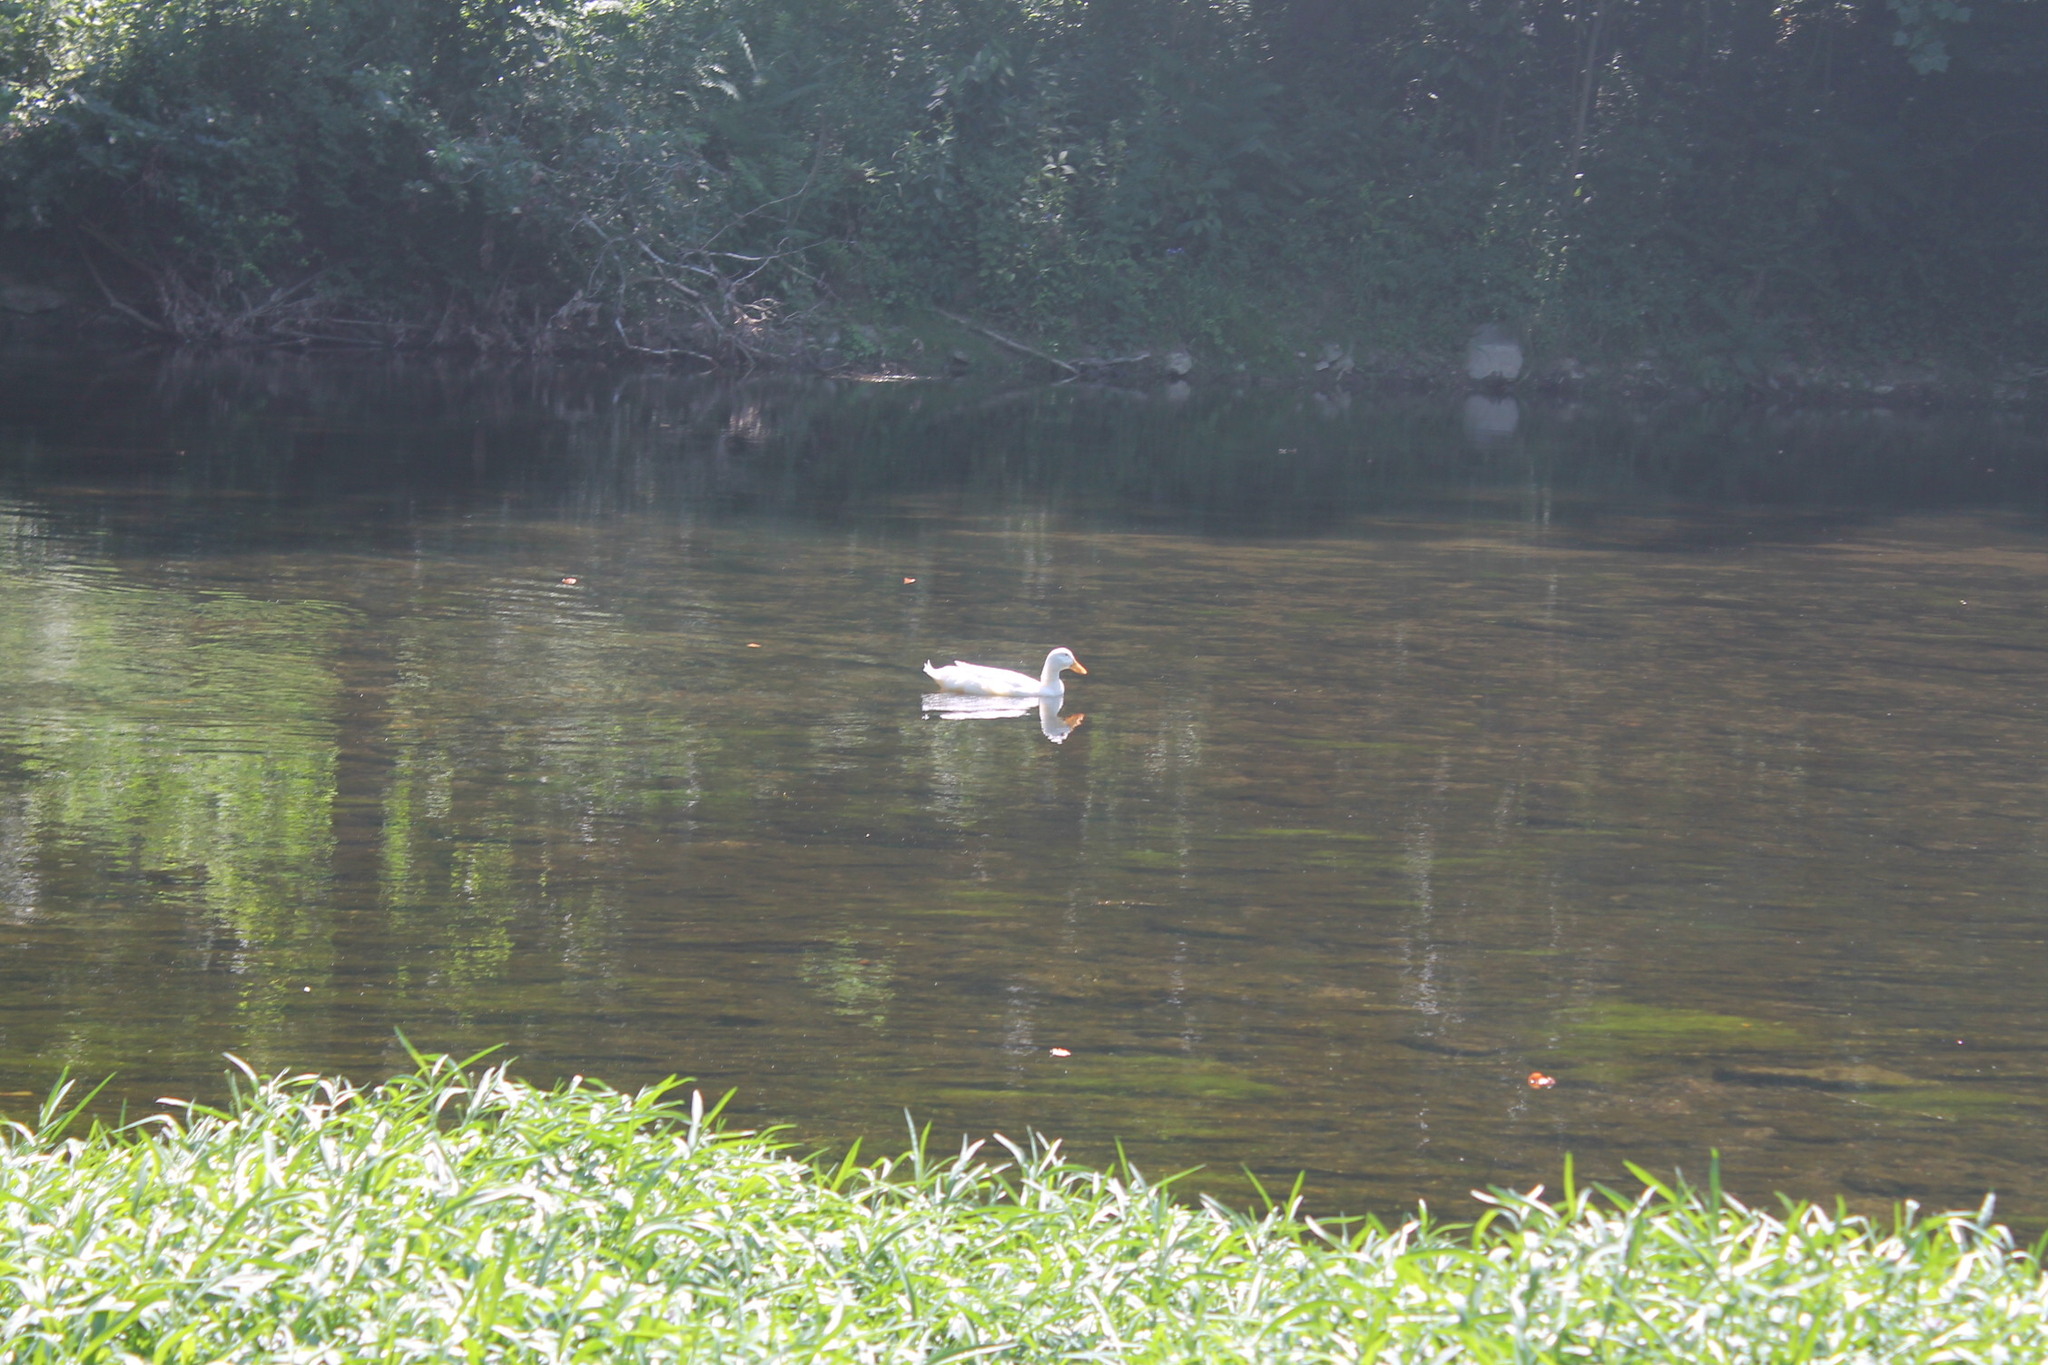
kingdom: Animalia
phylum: Chordata
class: Aves
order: Anseriformes
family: Anatidae
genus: Anas
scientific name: Anas platyrhynchos
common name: Mallard
